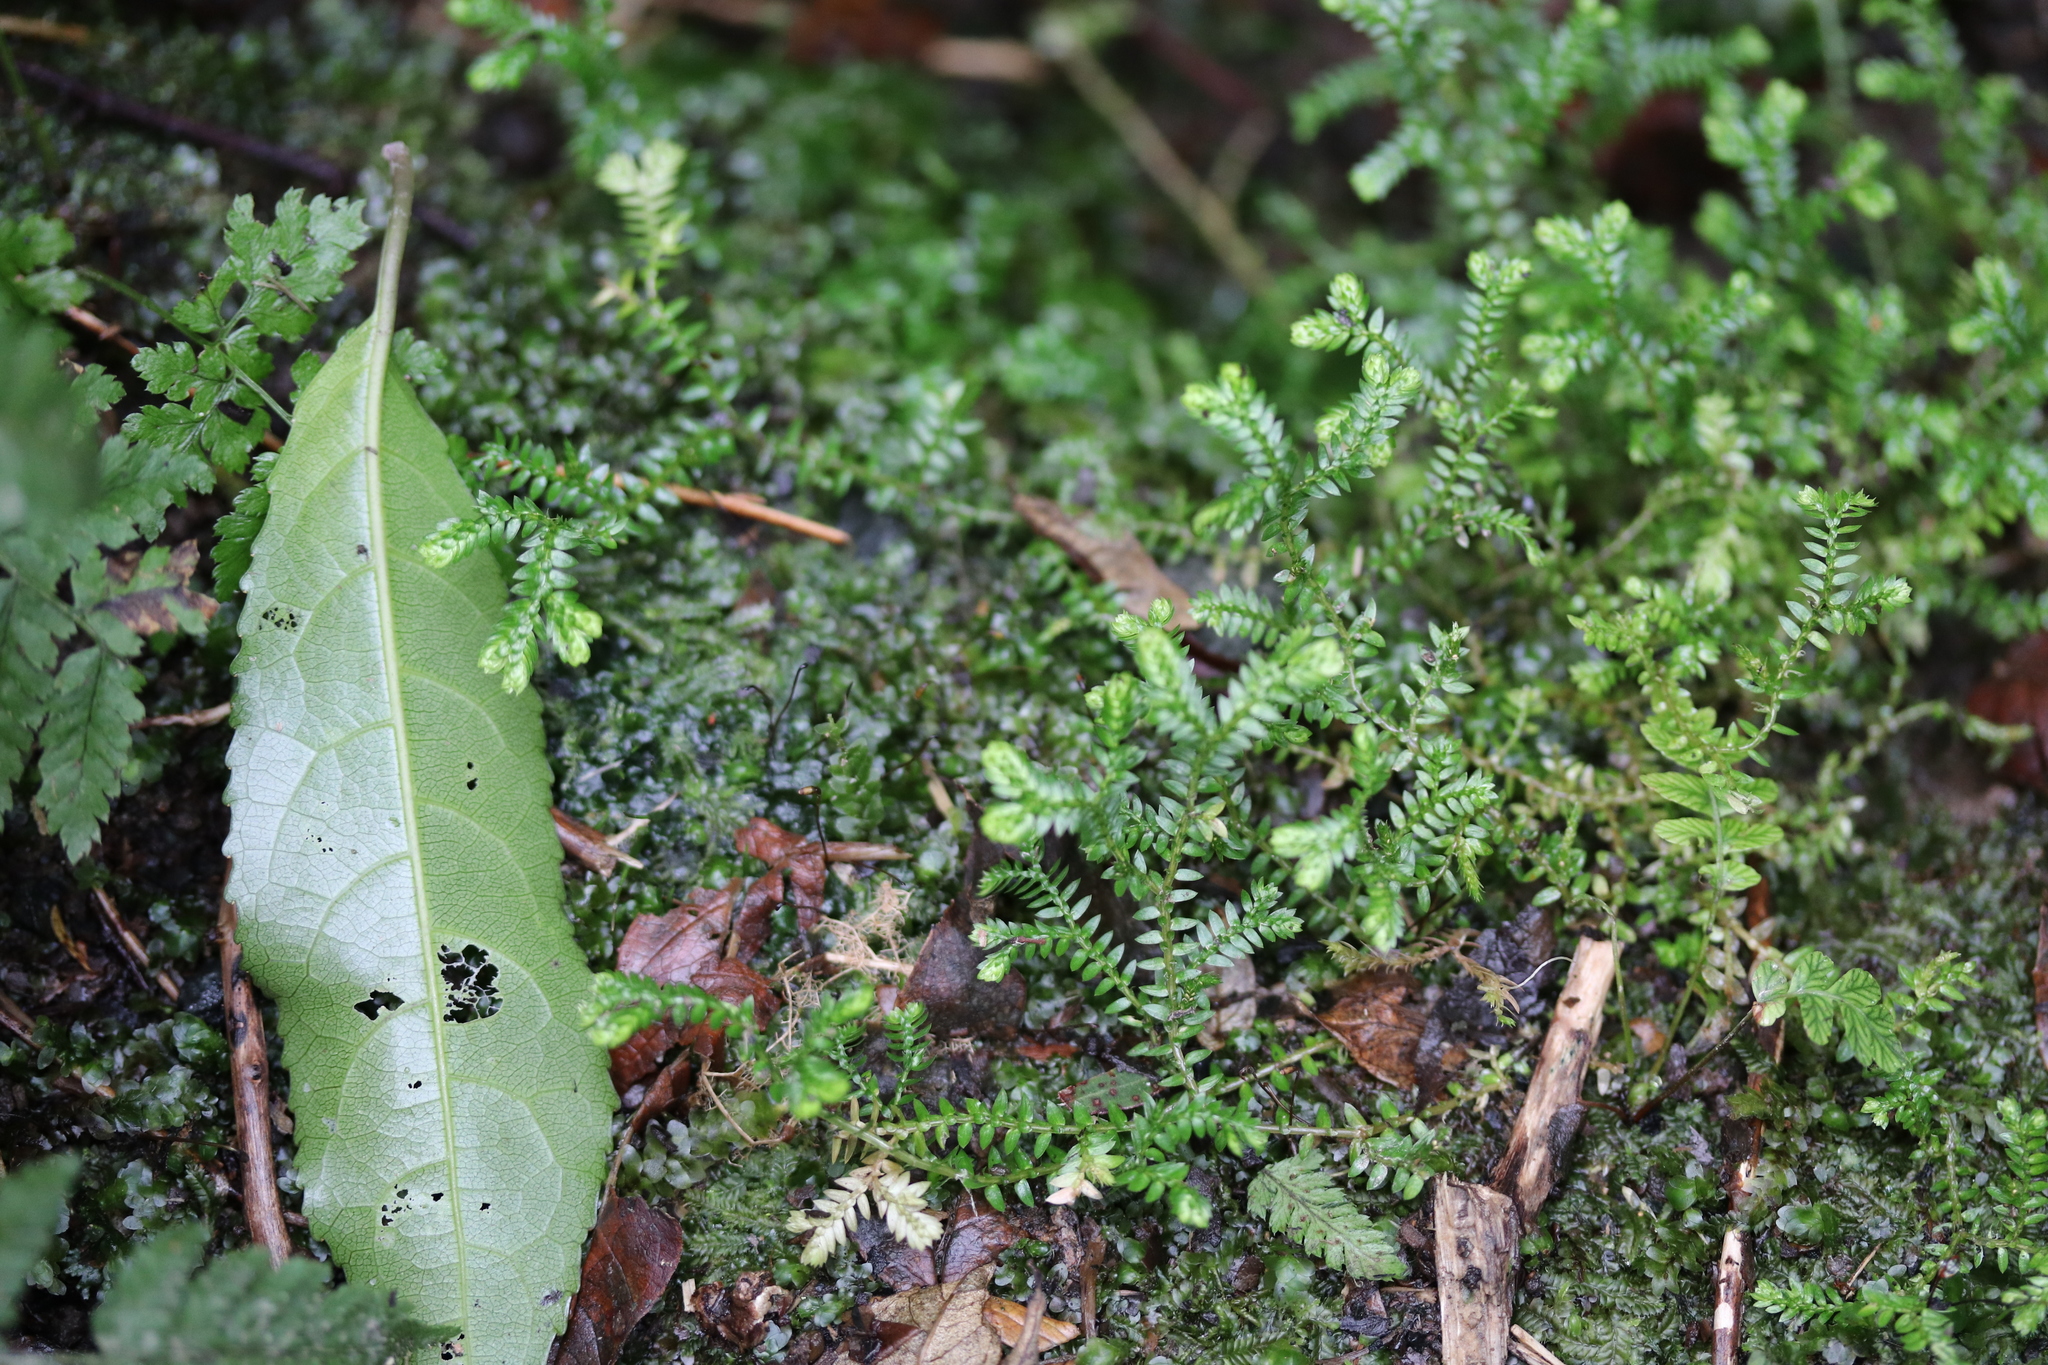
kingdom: Plantae
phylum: Tracheophyta
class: Lycopodiopsida
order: Selaginellales
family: Selaginellaceae
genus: Selaginella
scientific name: Selaginella kraussiana
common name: Krauss' spikemoss
